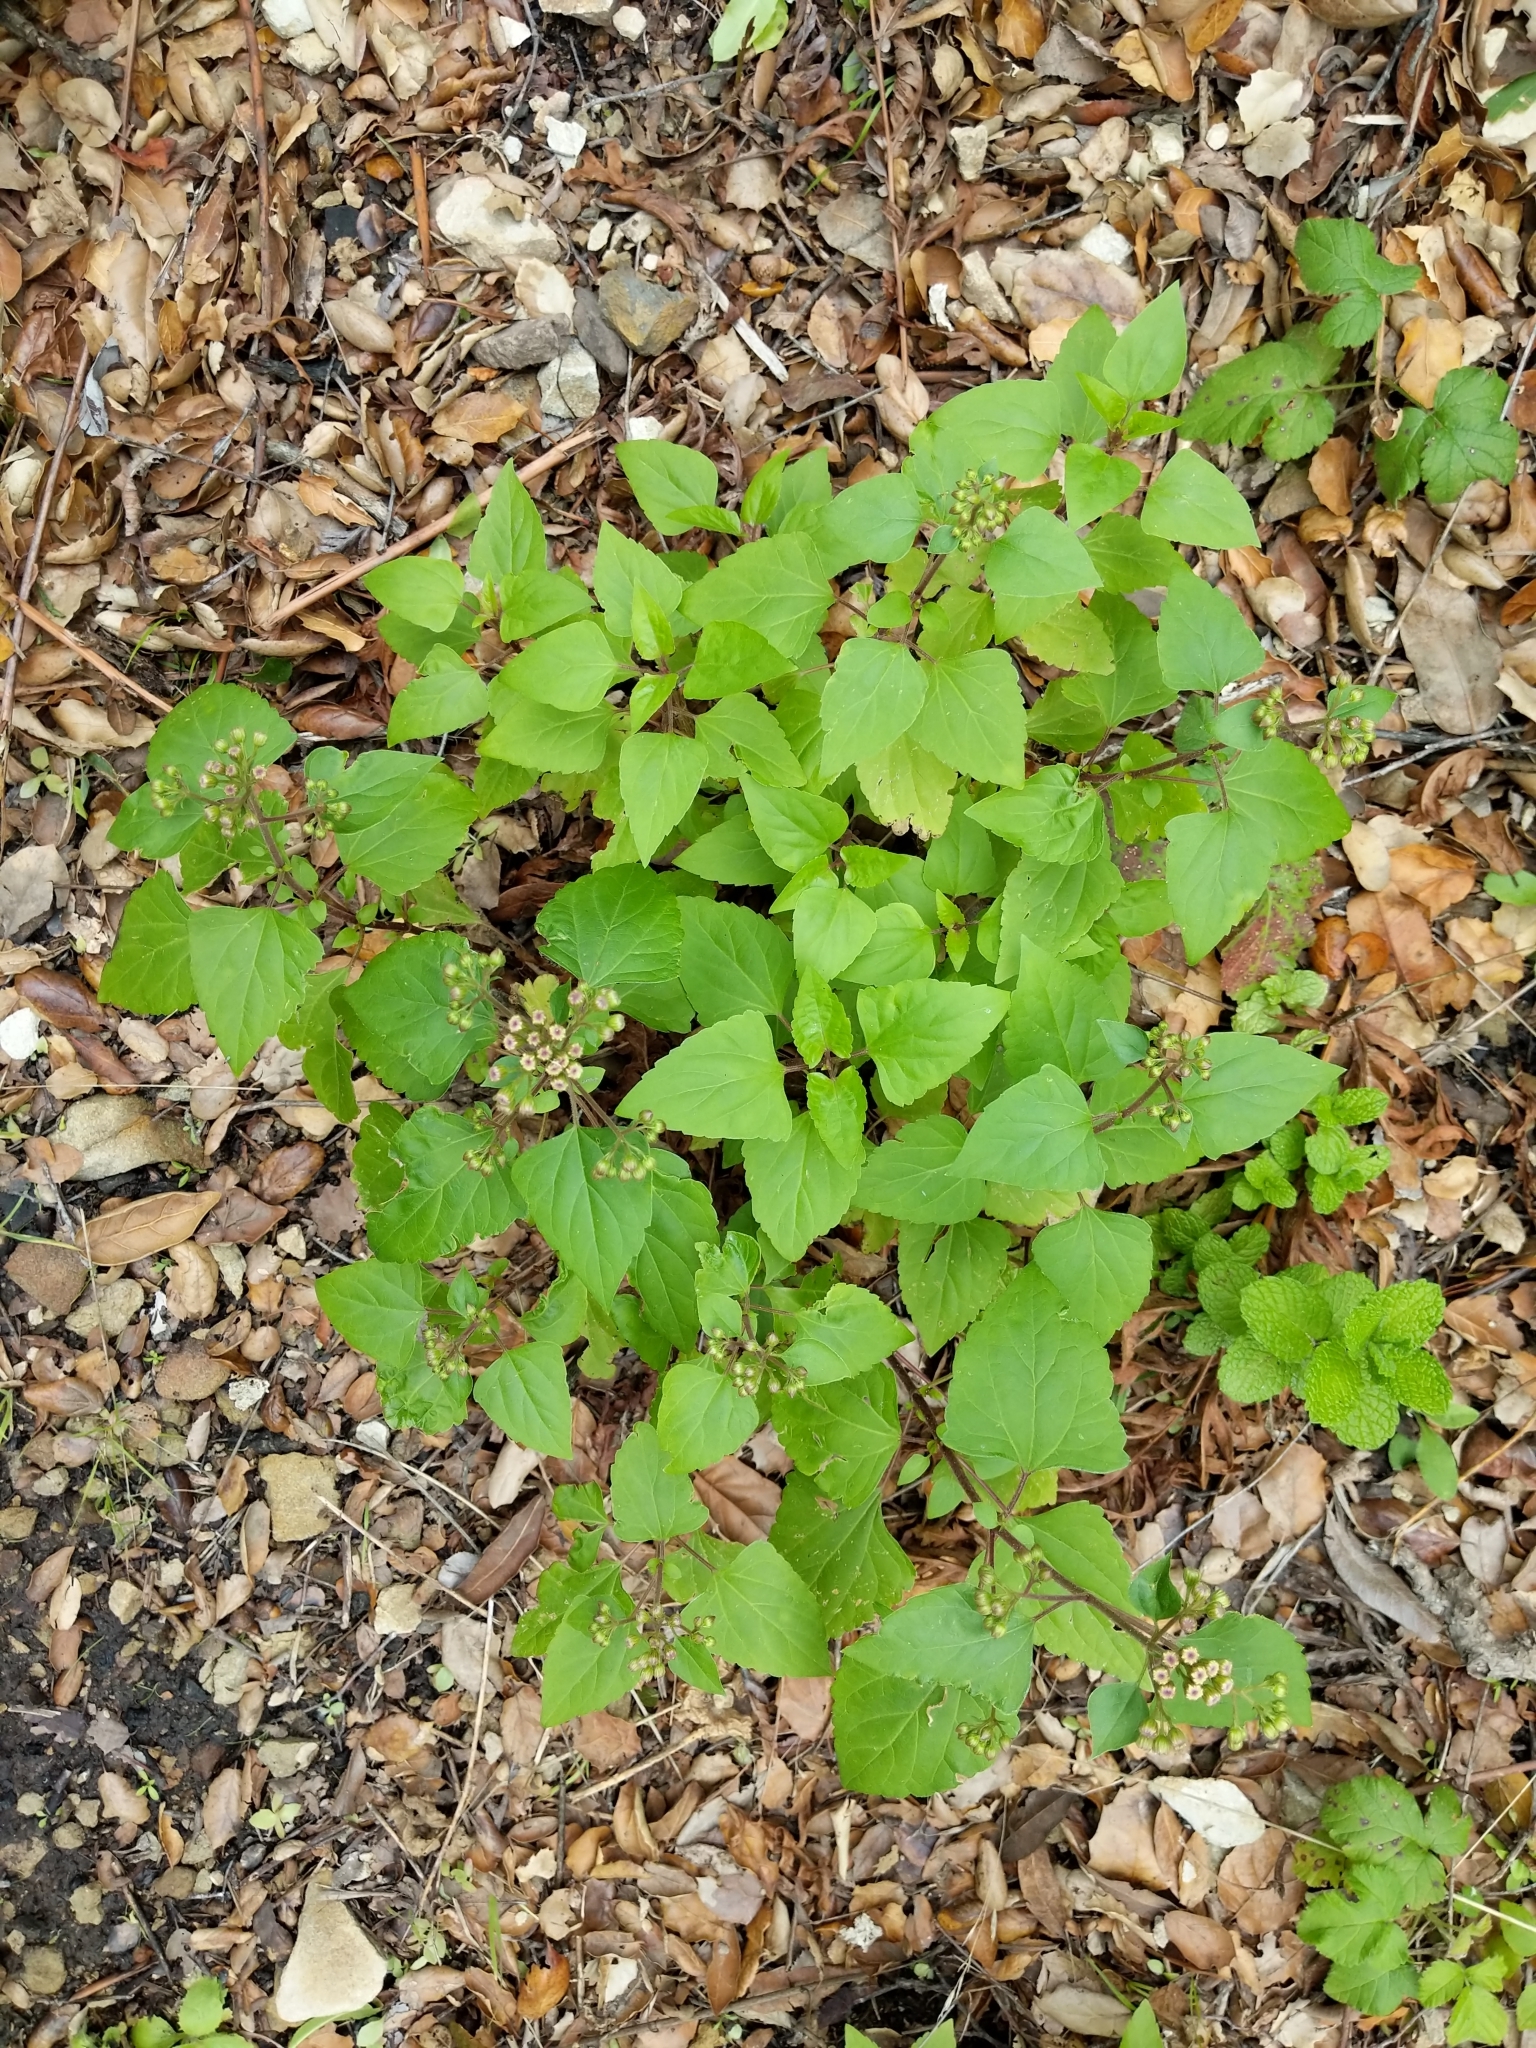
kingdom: Plantae
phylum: Tracheophyta
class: Magnoliopsida
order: Asterales
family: Asteraceae
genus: Ageratina
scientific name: Ageratina adenophora
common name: Sticky snakeroot
